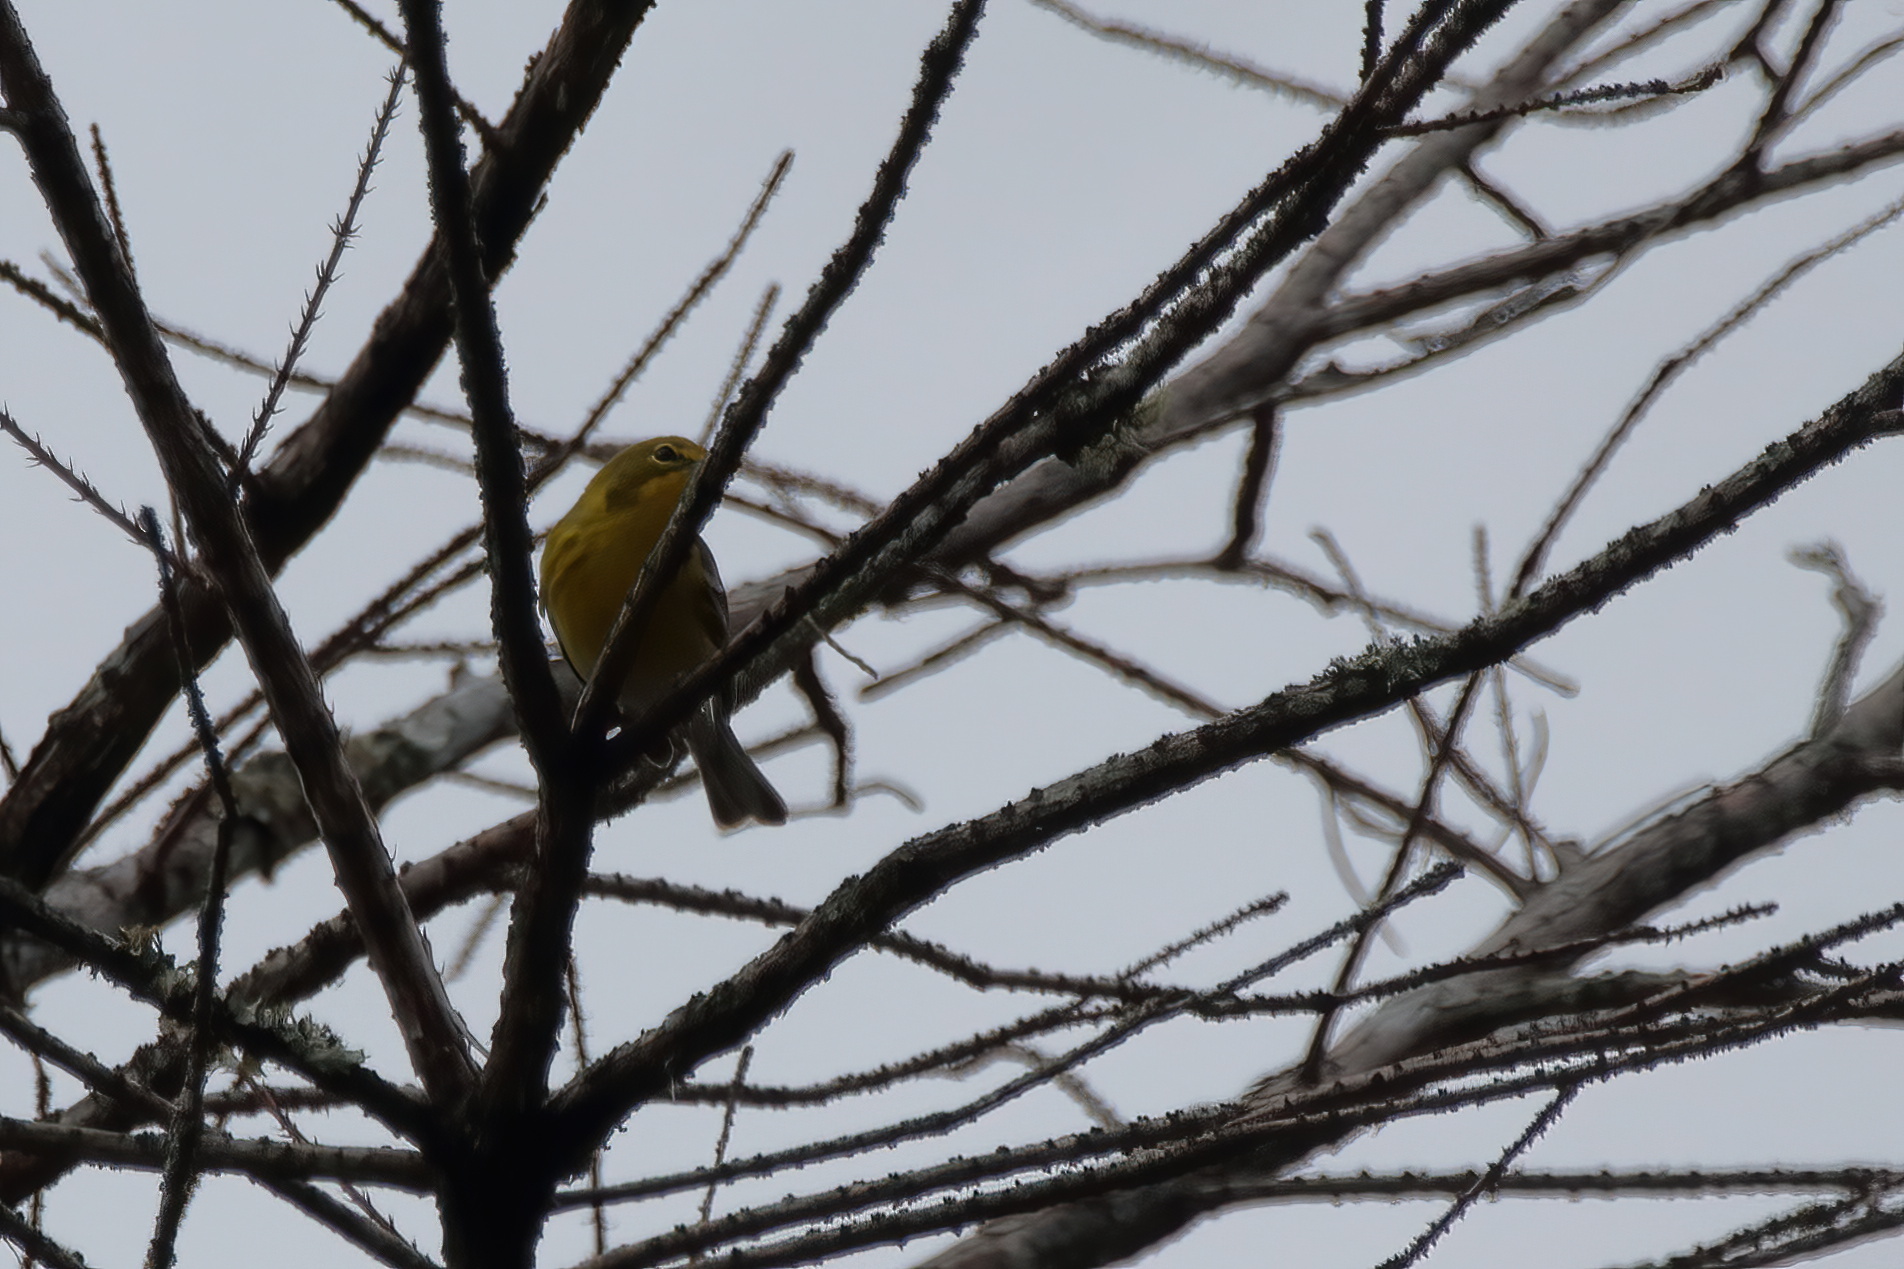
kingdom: Animalia
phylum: Chordata
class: Aves
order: Passeriformes
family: Parulidae
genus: Setophaga
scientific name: Setophaga pinus
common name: Pine warbler
